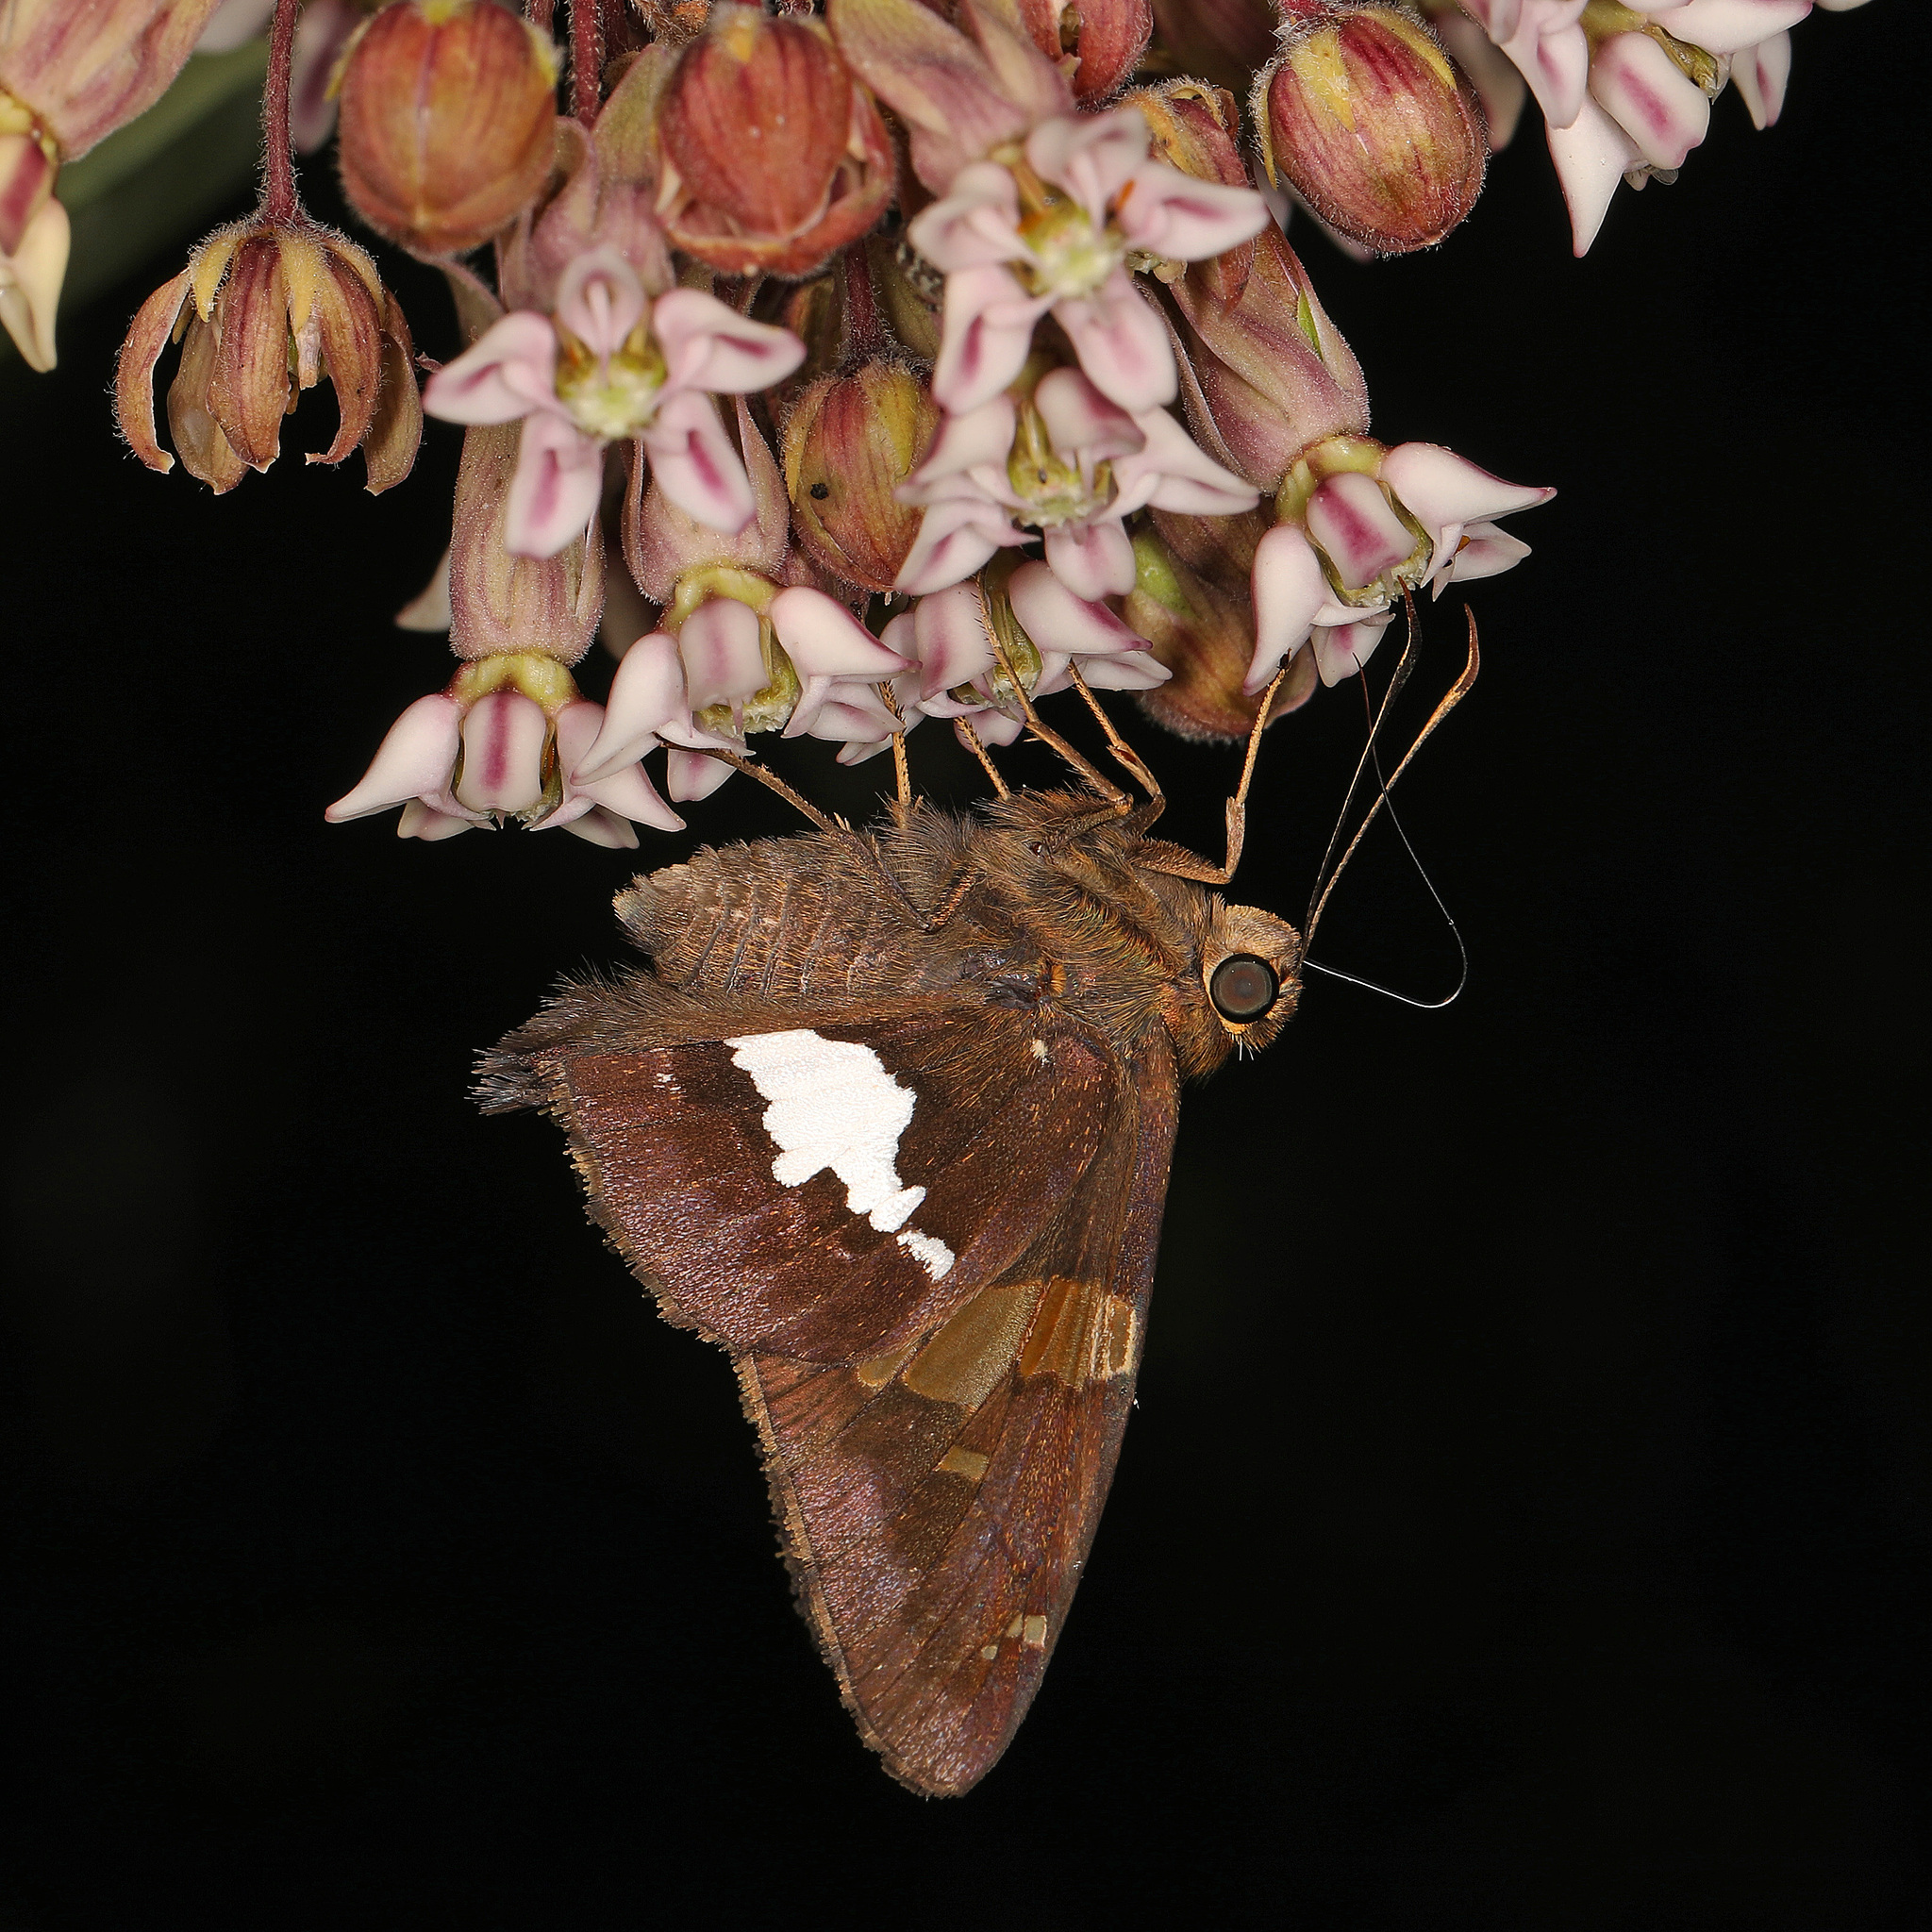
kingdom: Animalia
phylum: Arthropoda
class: Insecta
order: Lepidoptera
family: Hesperiidae
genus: Epargyreus
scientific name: Epargyreus clarus
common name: Silver-spotted skipper
